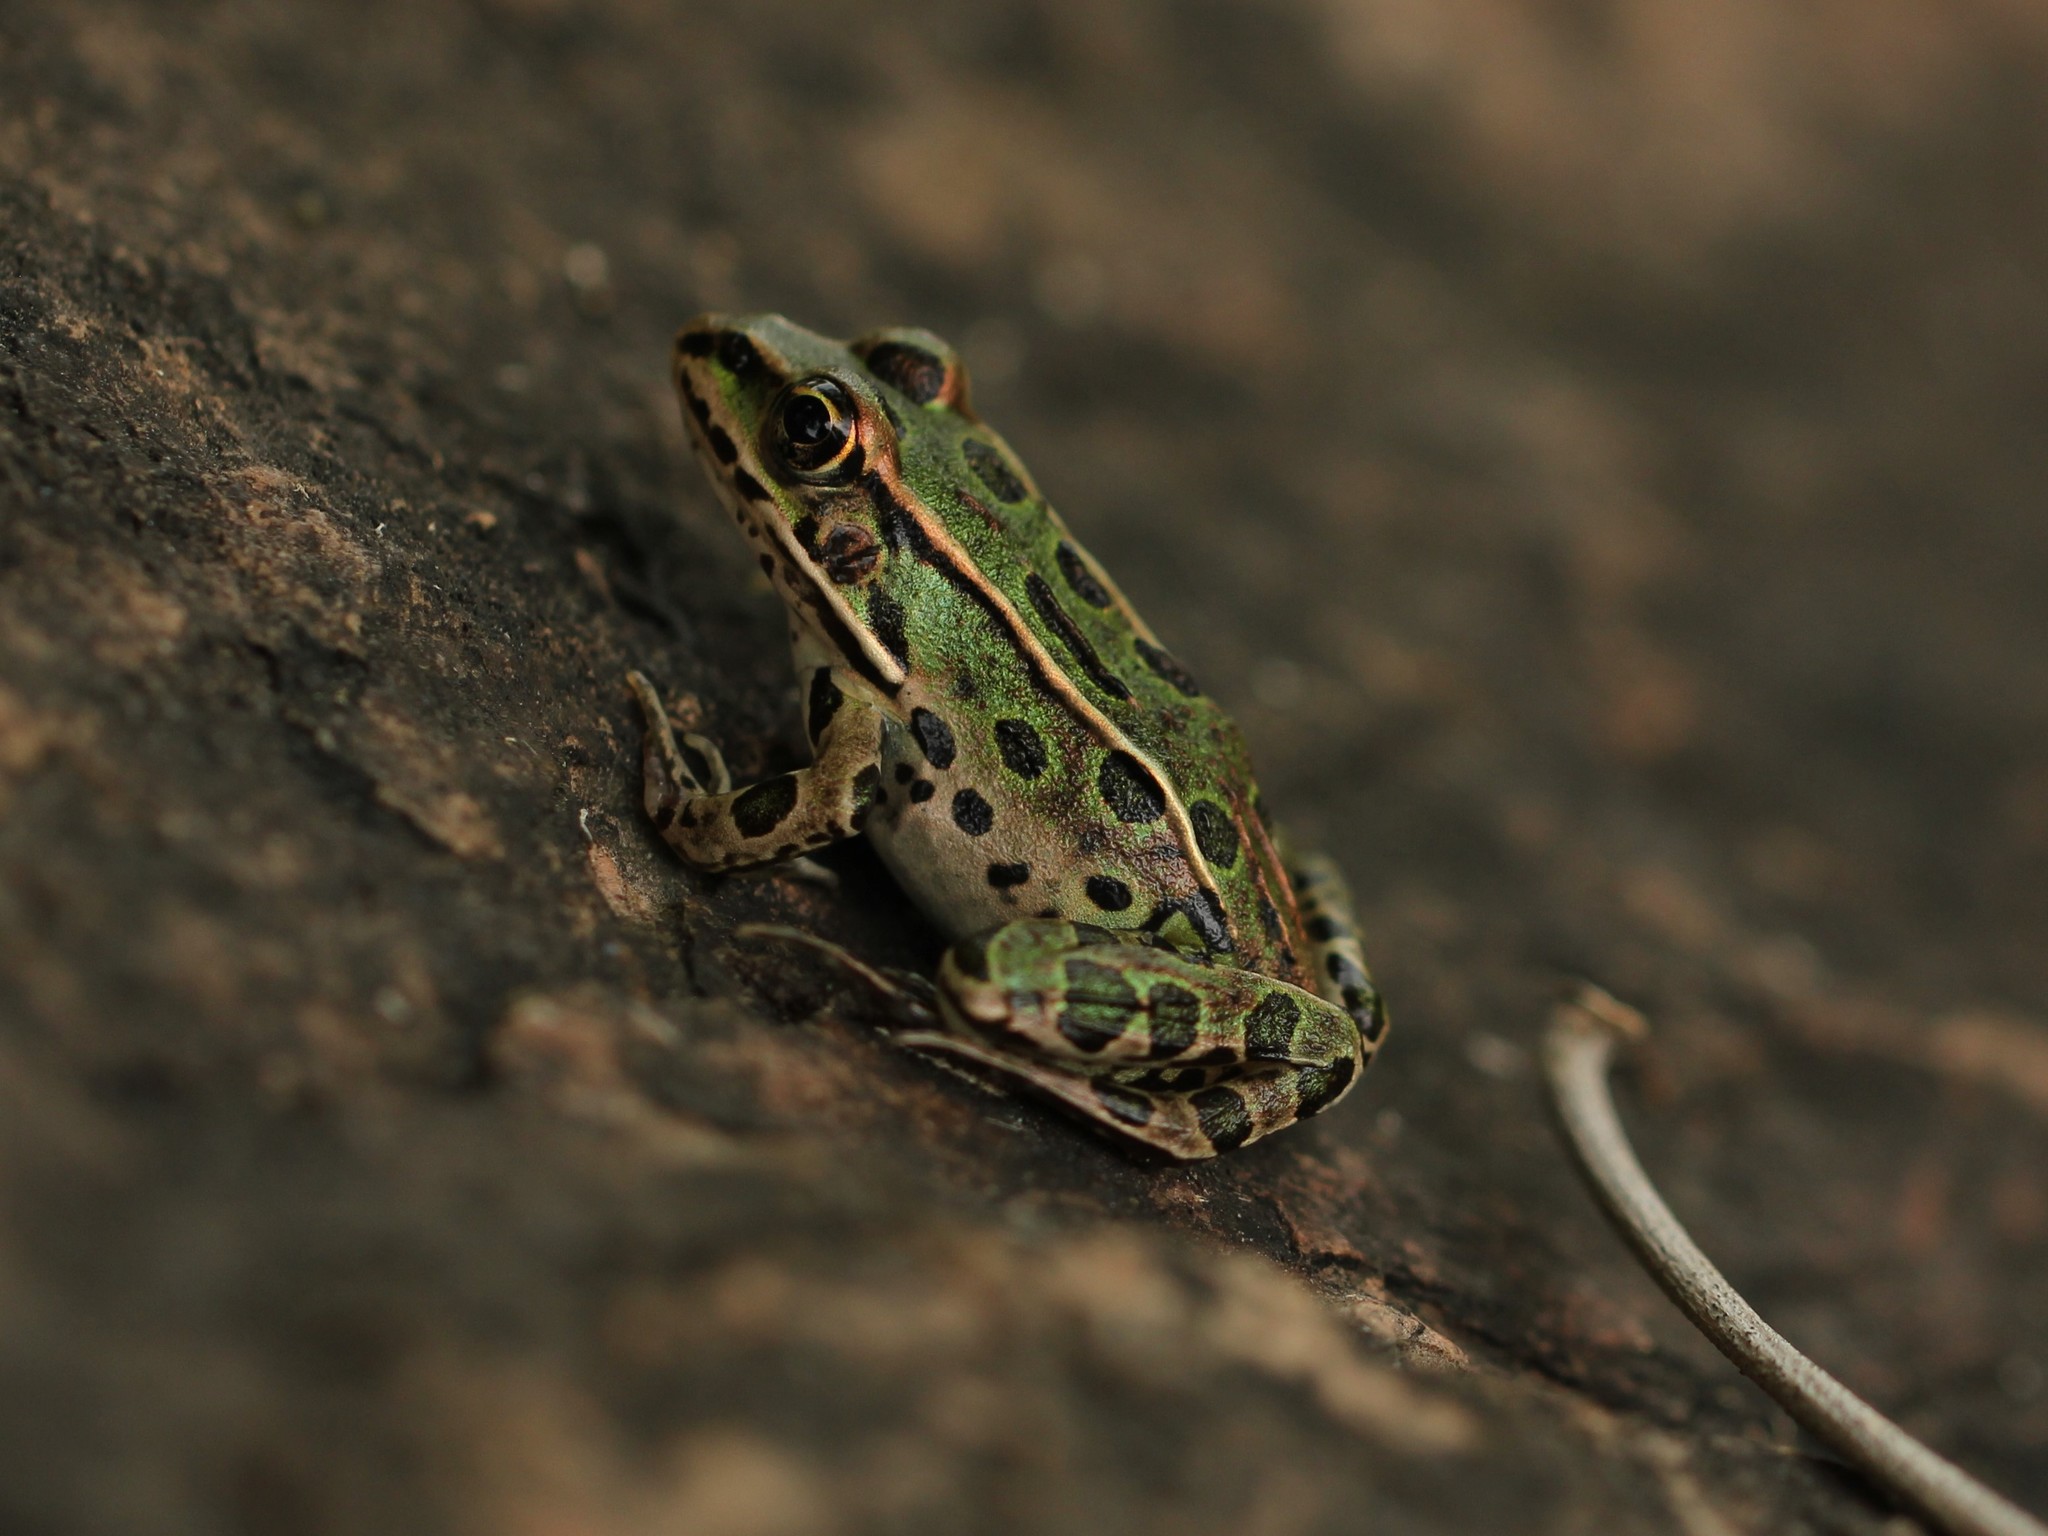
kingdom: Animalia
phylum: Chordata
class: Amphibia
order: Anura
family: Ranidae
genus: Lithobates
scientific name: Lithobates pipiens
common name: Northern leopard frog
